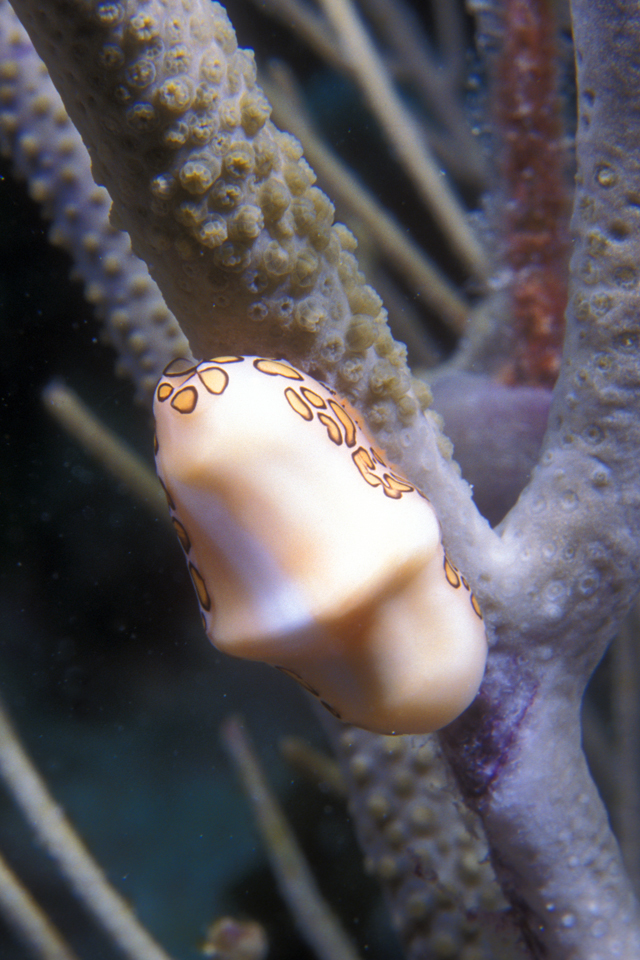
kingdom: Animalia
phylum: Mollusca
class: Gastropoda
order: Littorinimorpha
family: Ovulidae
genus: Cyphoma
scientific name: Cyphoma gibbosum
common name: Flamingo tongue
